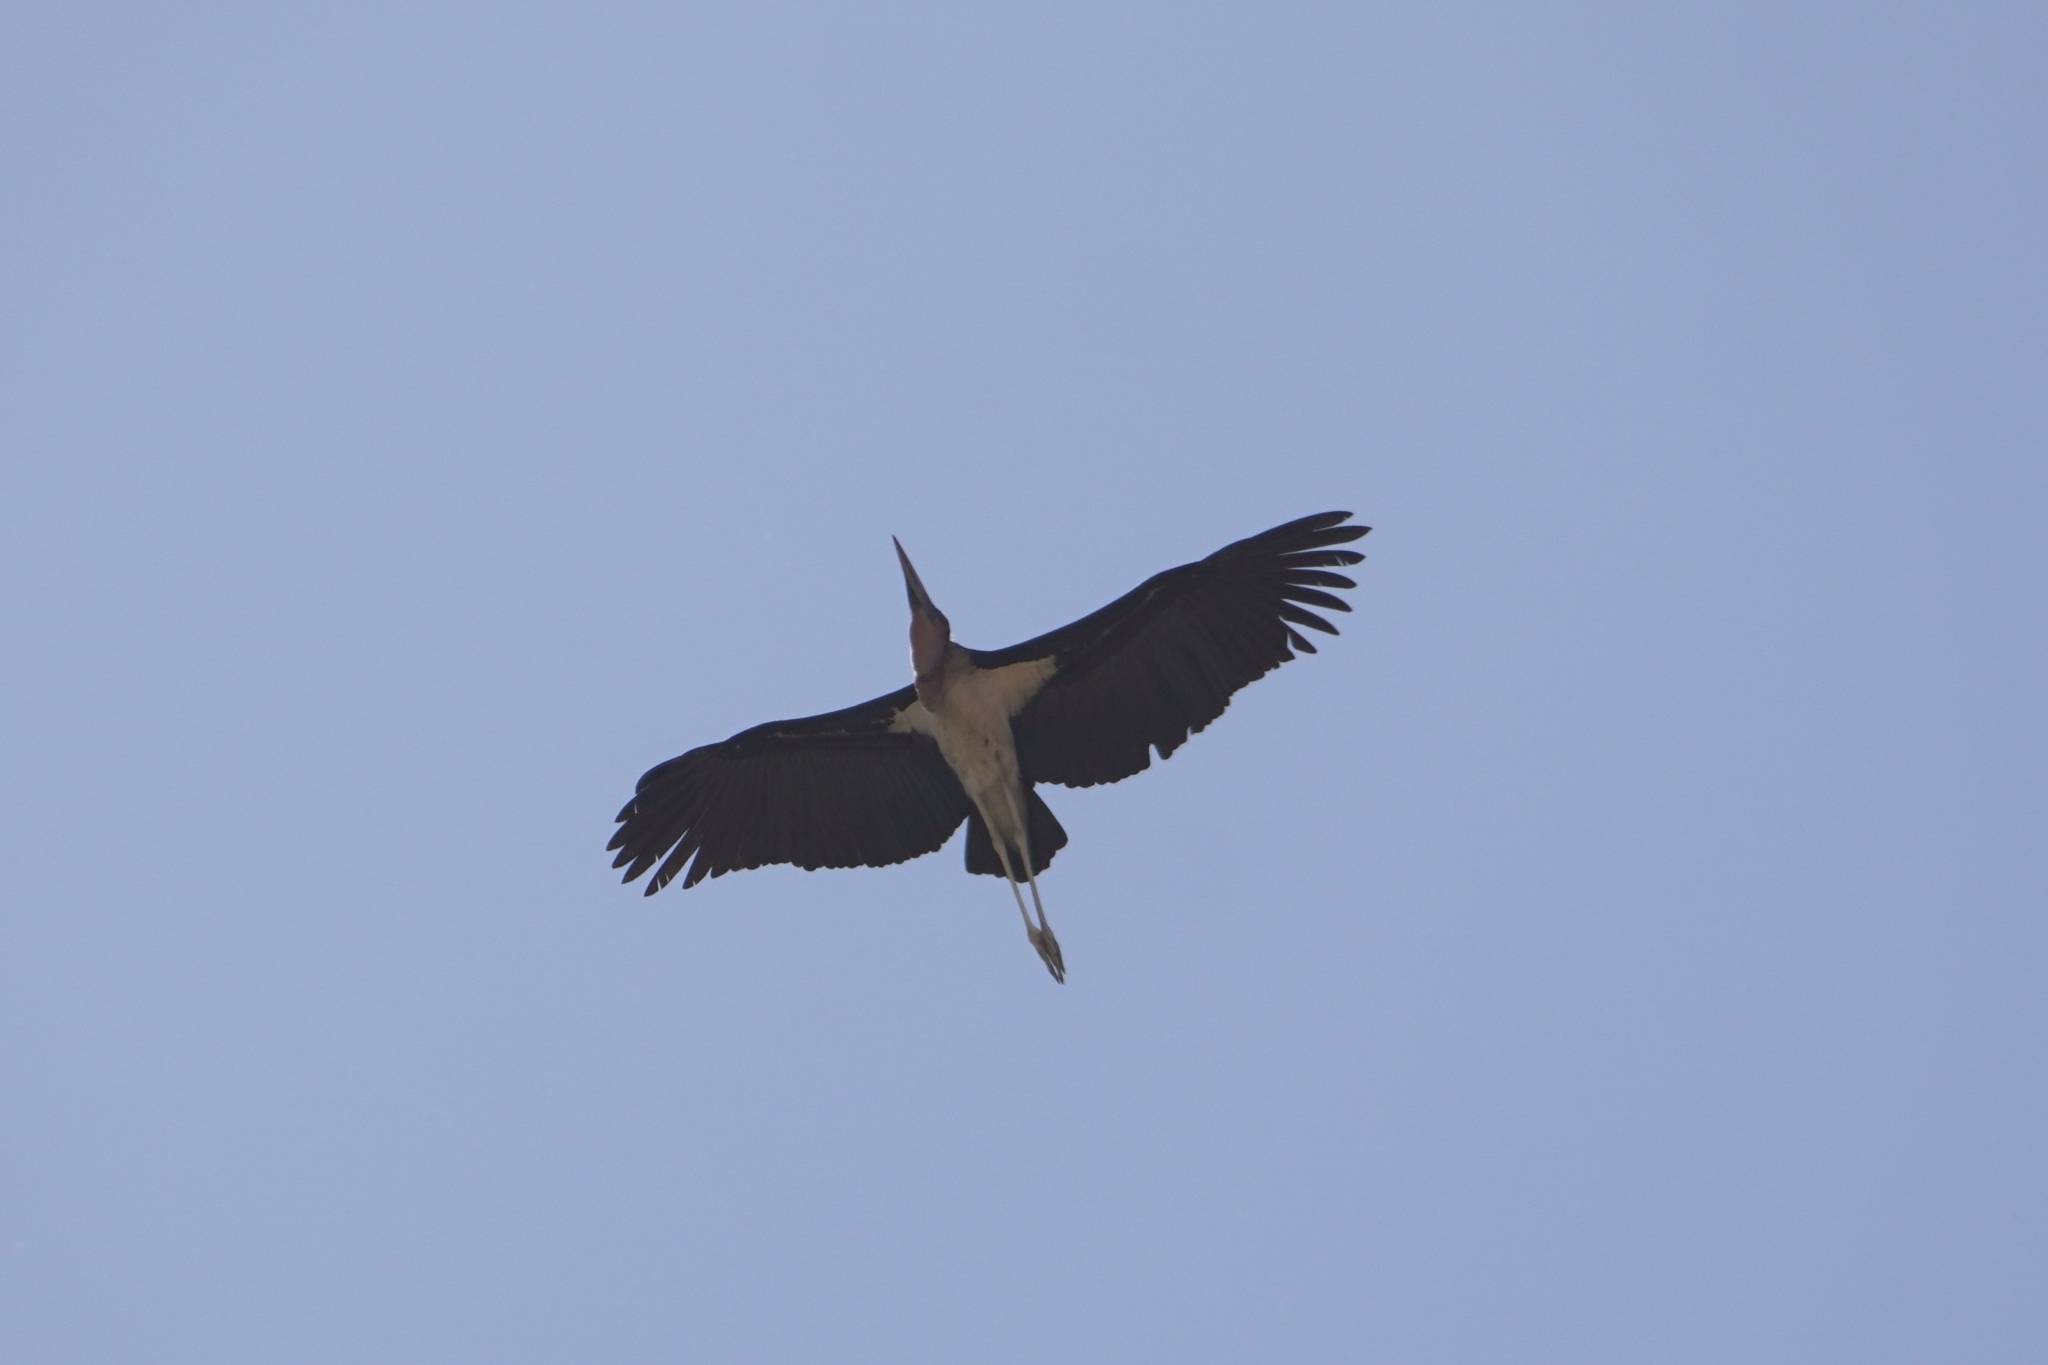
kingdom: Animalia
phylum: Chordata
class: Aves
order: Ciconiiformes
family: Ciconiidae
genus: Leptoptilos
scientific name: Leptoptilos crumenifer
